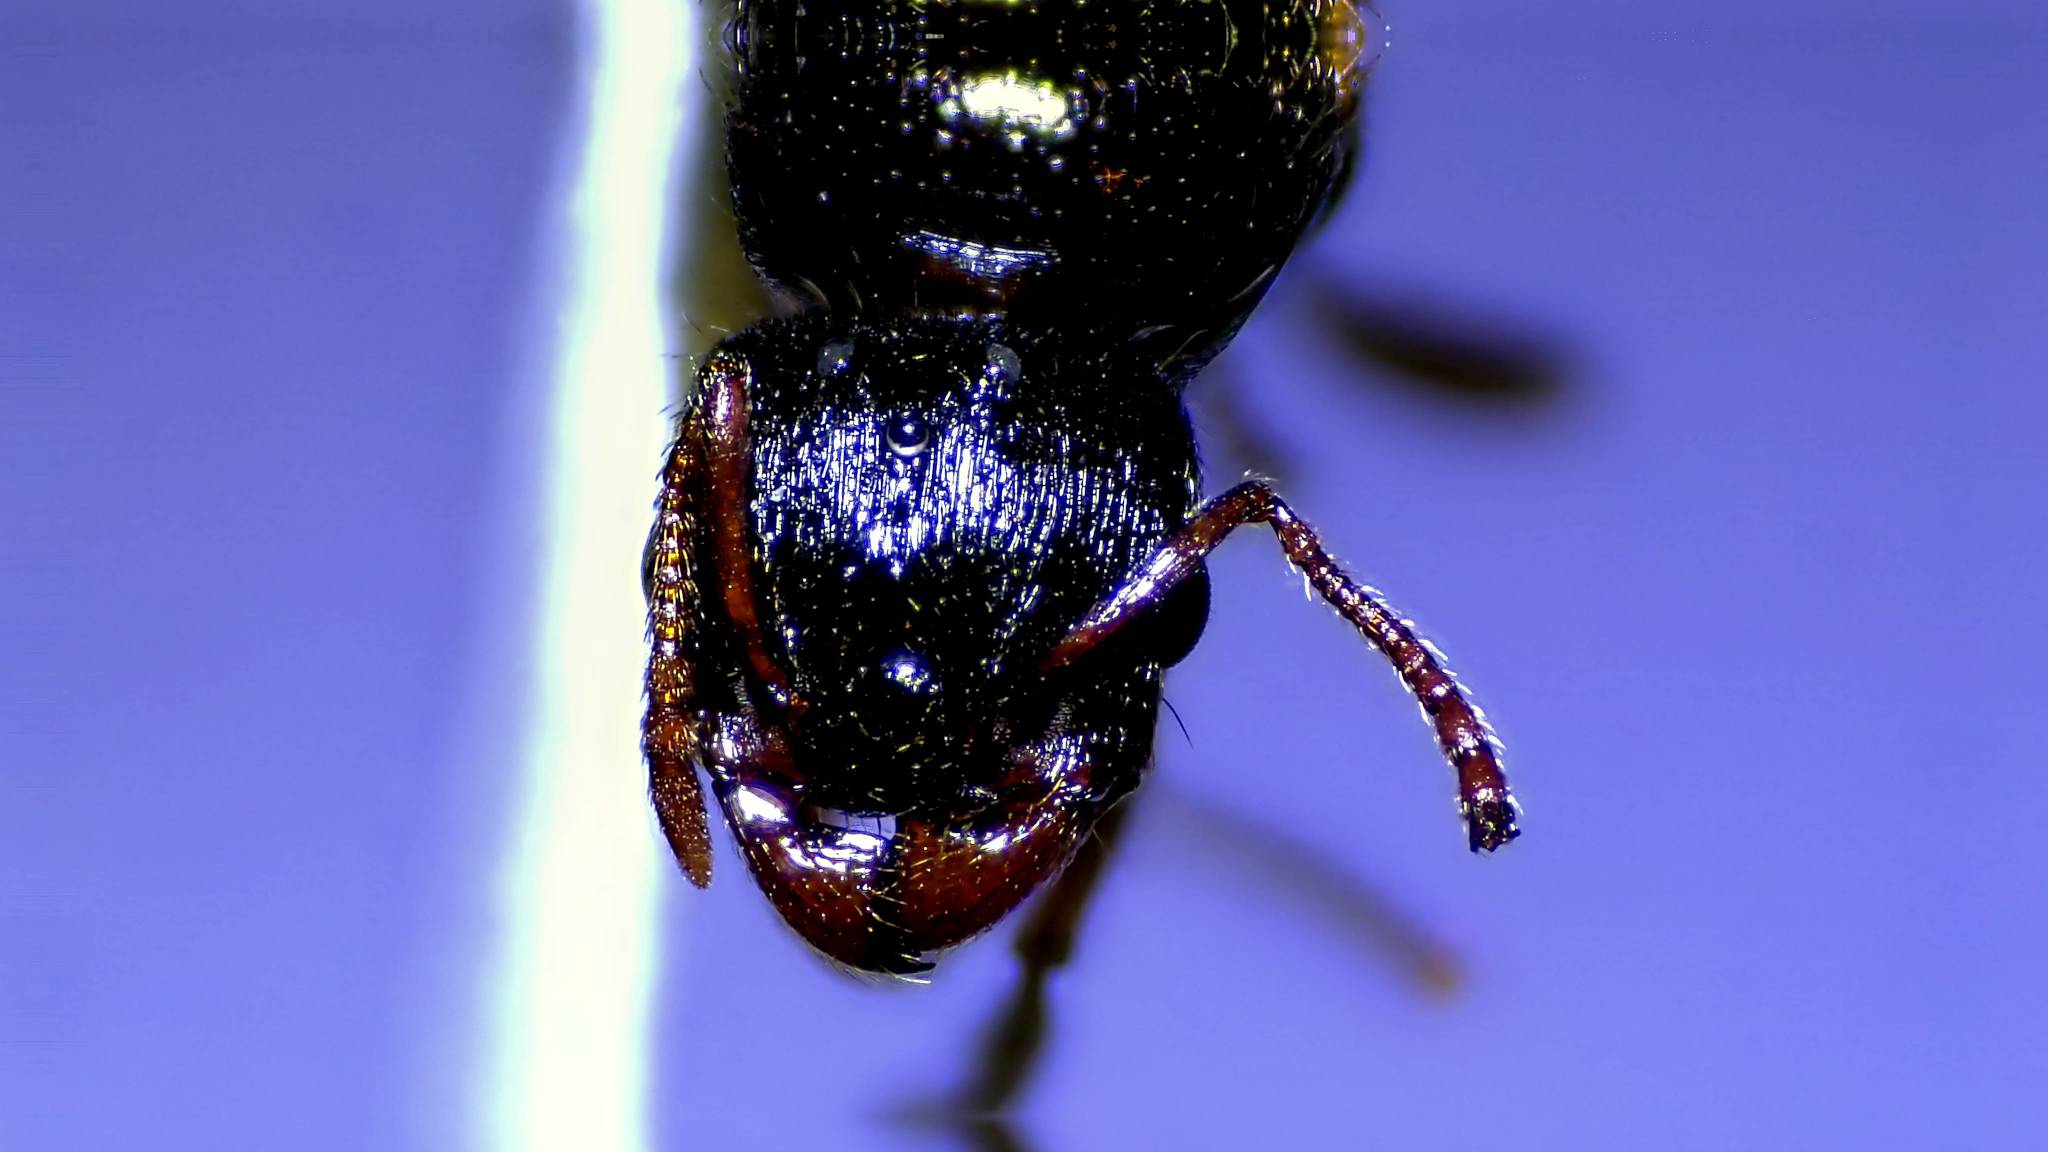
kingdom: Animalia
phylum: Arthropoda
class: Insecta
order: Hymenoptera
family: Formicidae
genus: Tetramorium
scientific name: Tetramorium immigrans
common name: Pavement ant
